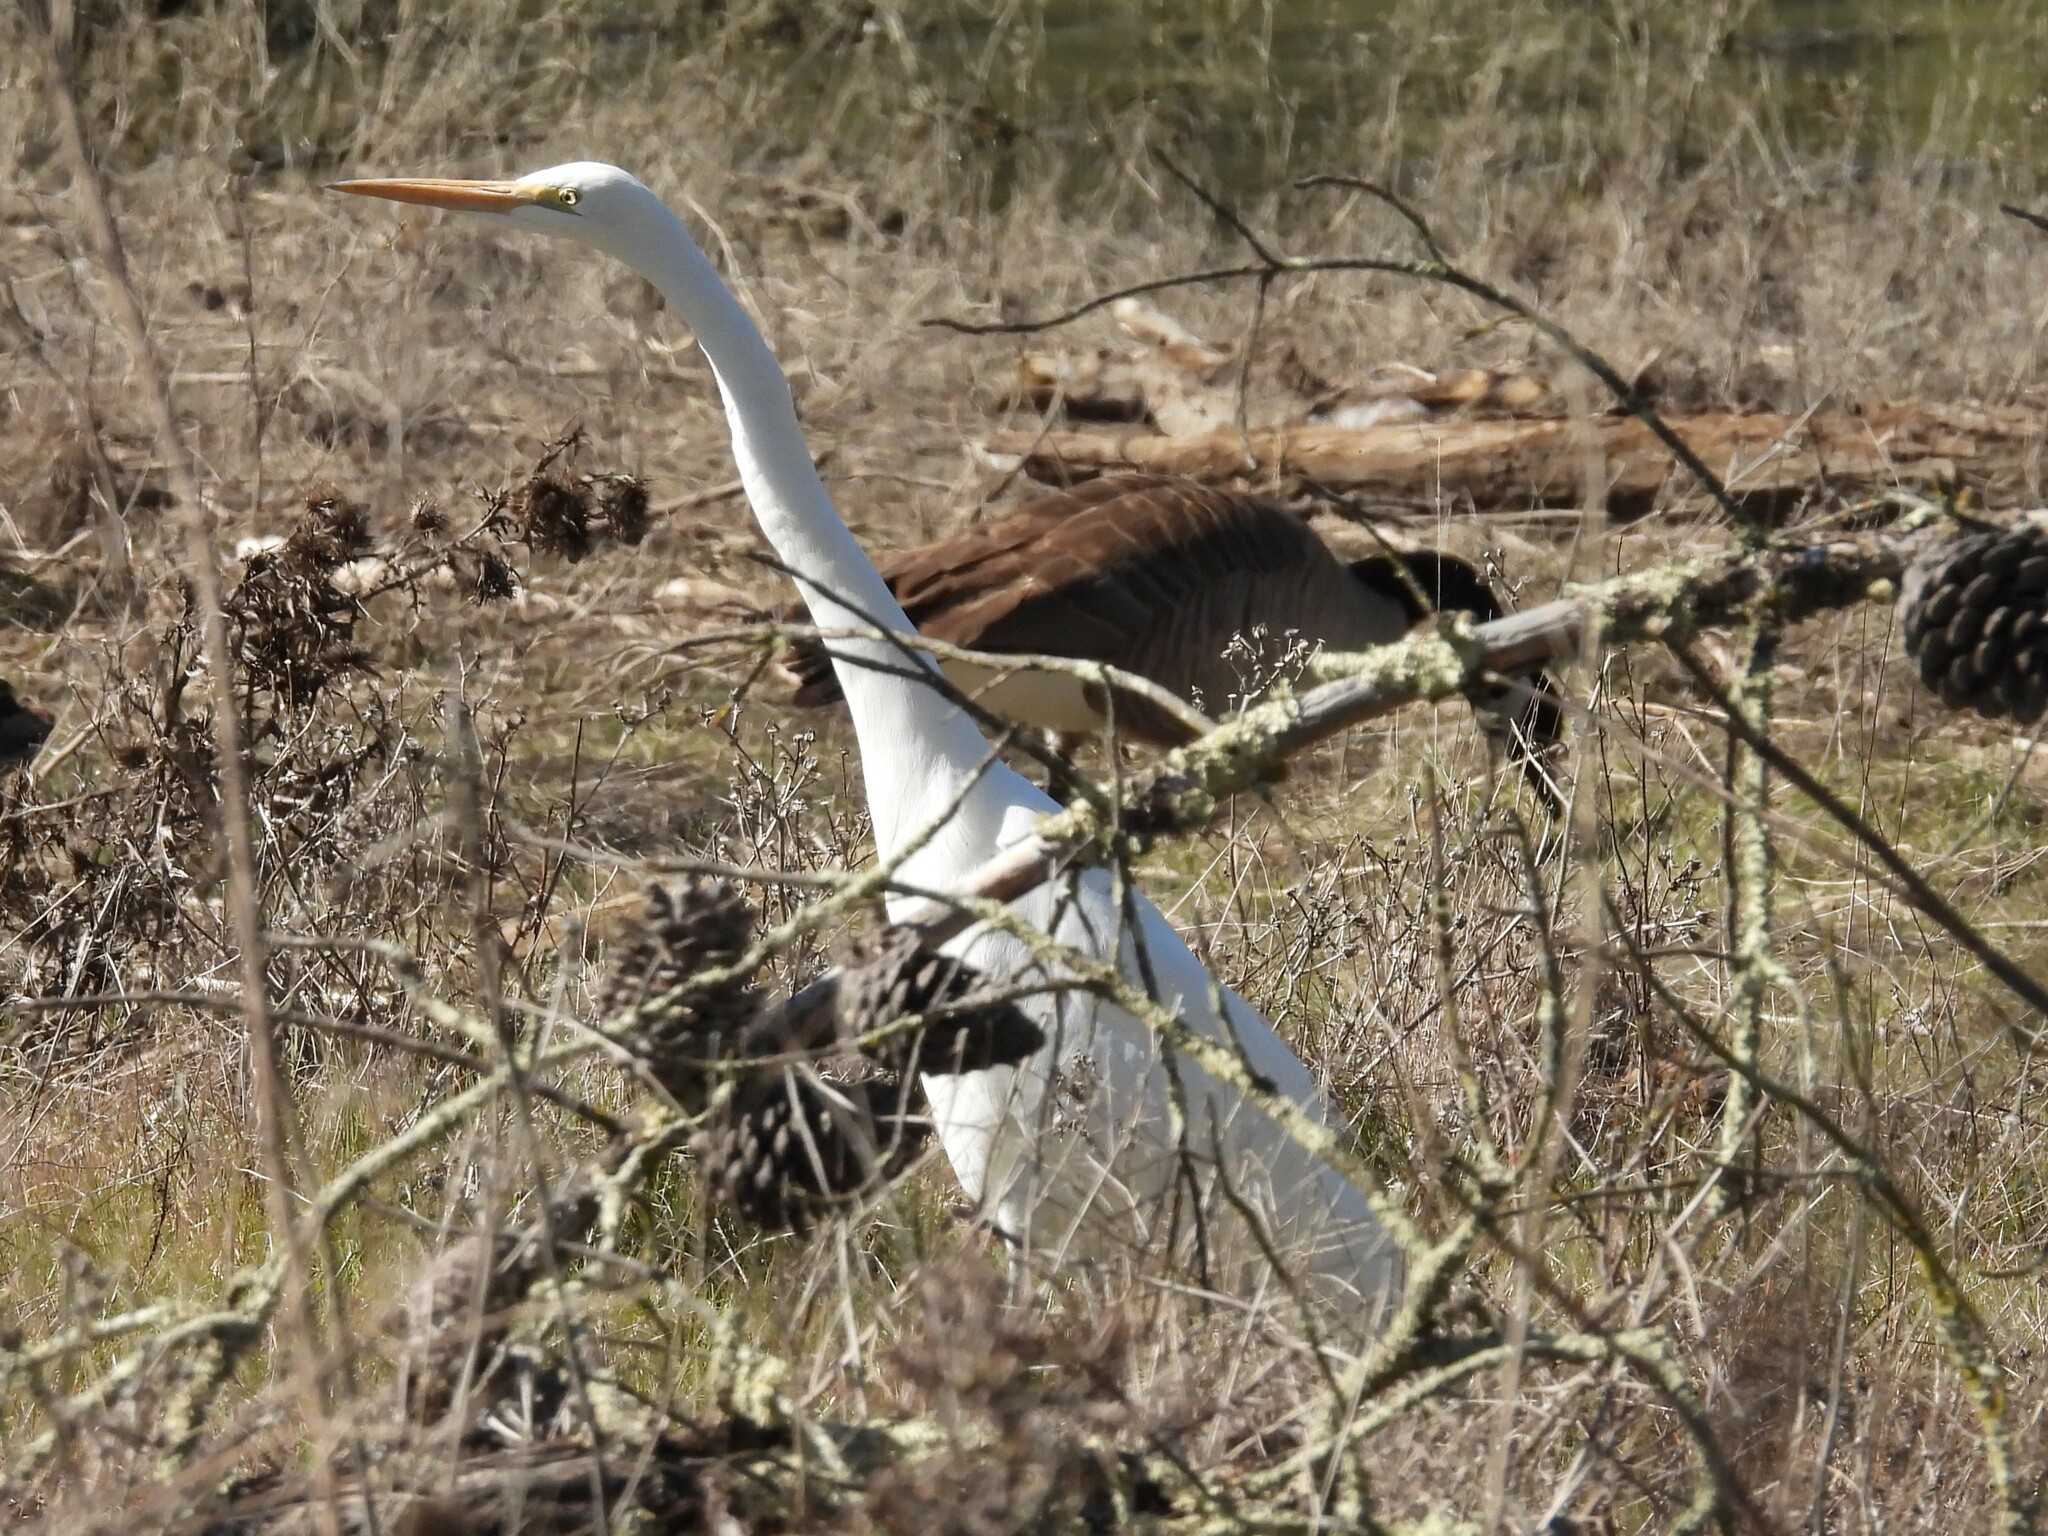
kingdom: Animalia
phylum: Chordata
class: Aves
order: Pelecaniformes
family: Ardeidae
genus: Ardea
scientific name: Ardea alba
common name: Great egret
